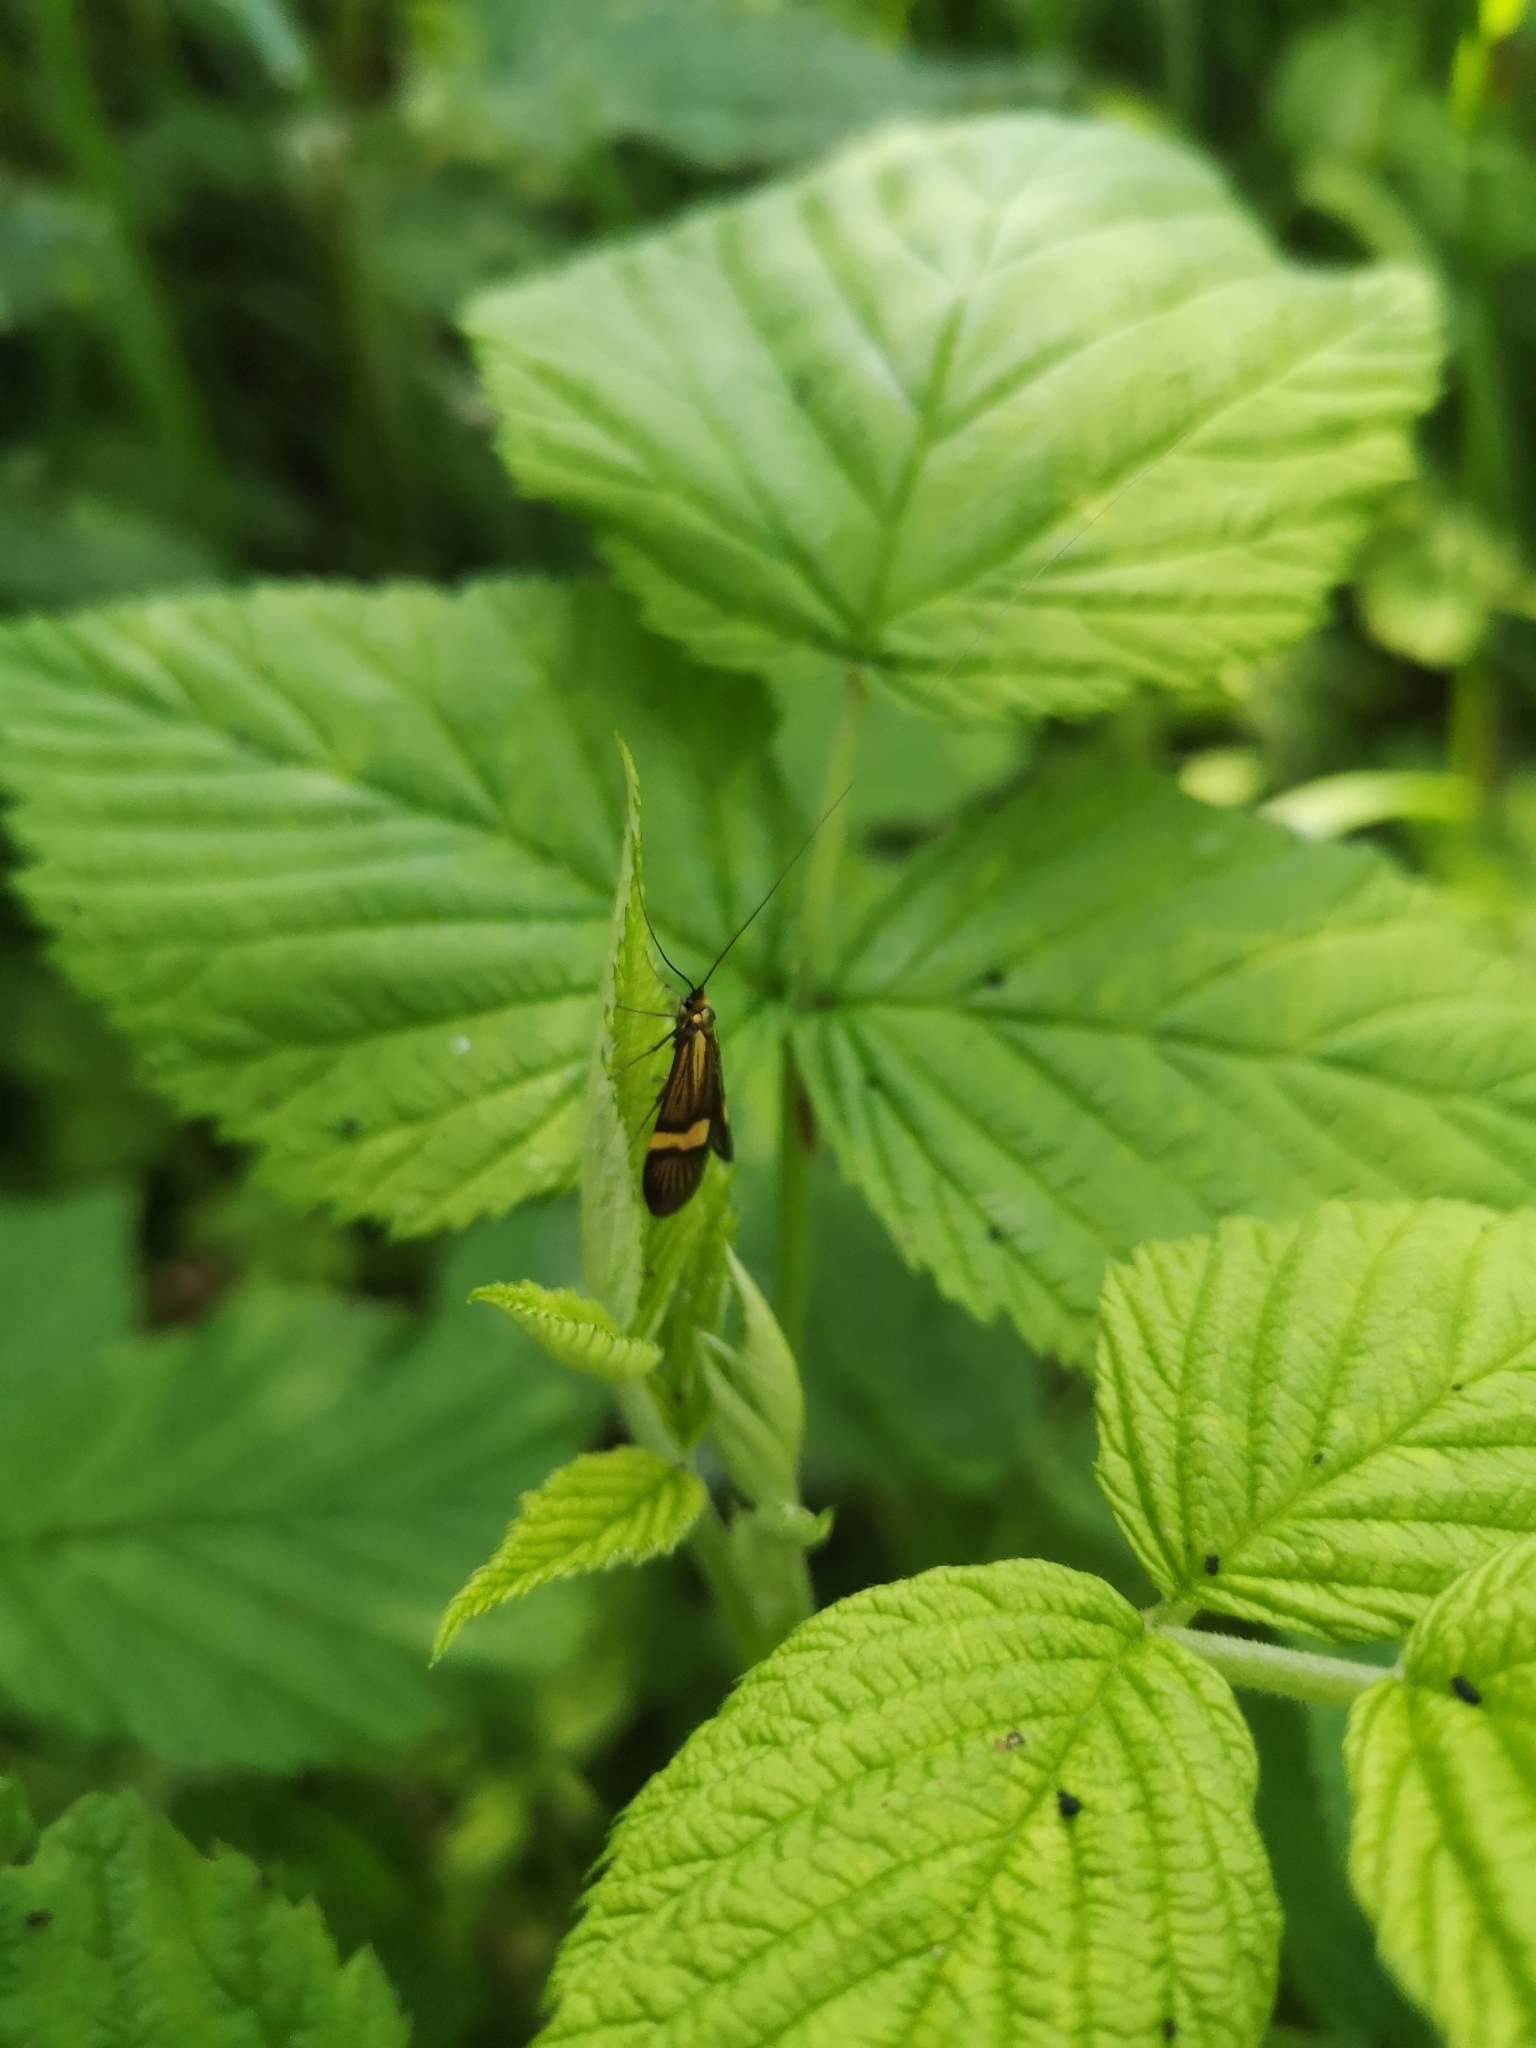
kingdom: Animalia
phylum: Arthropoda
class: Insecta
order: Lepidoptera
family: Adelidae
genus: Nemophora
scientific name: Nemophora
